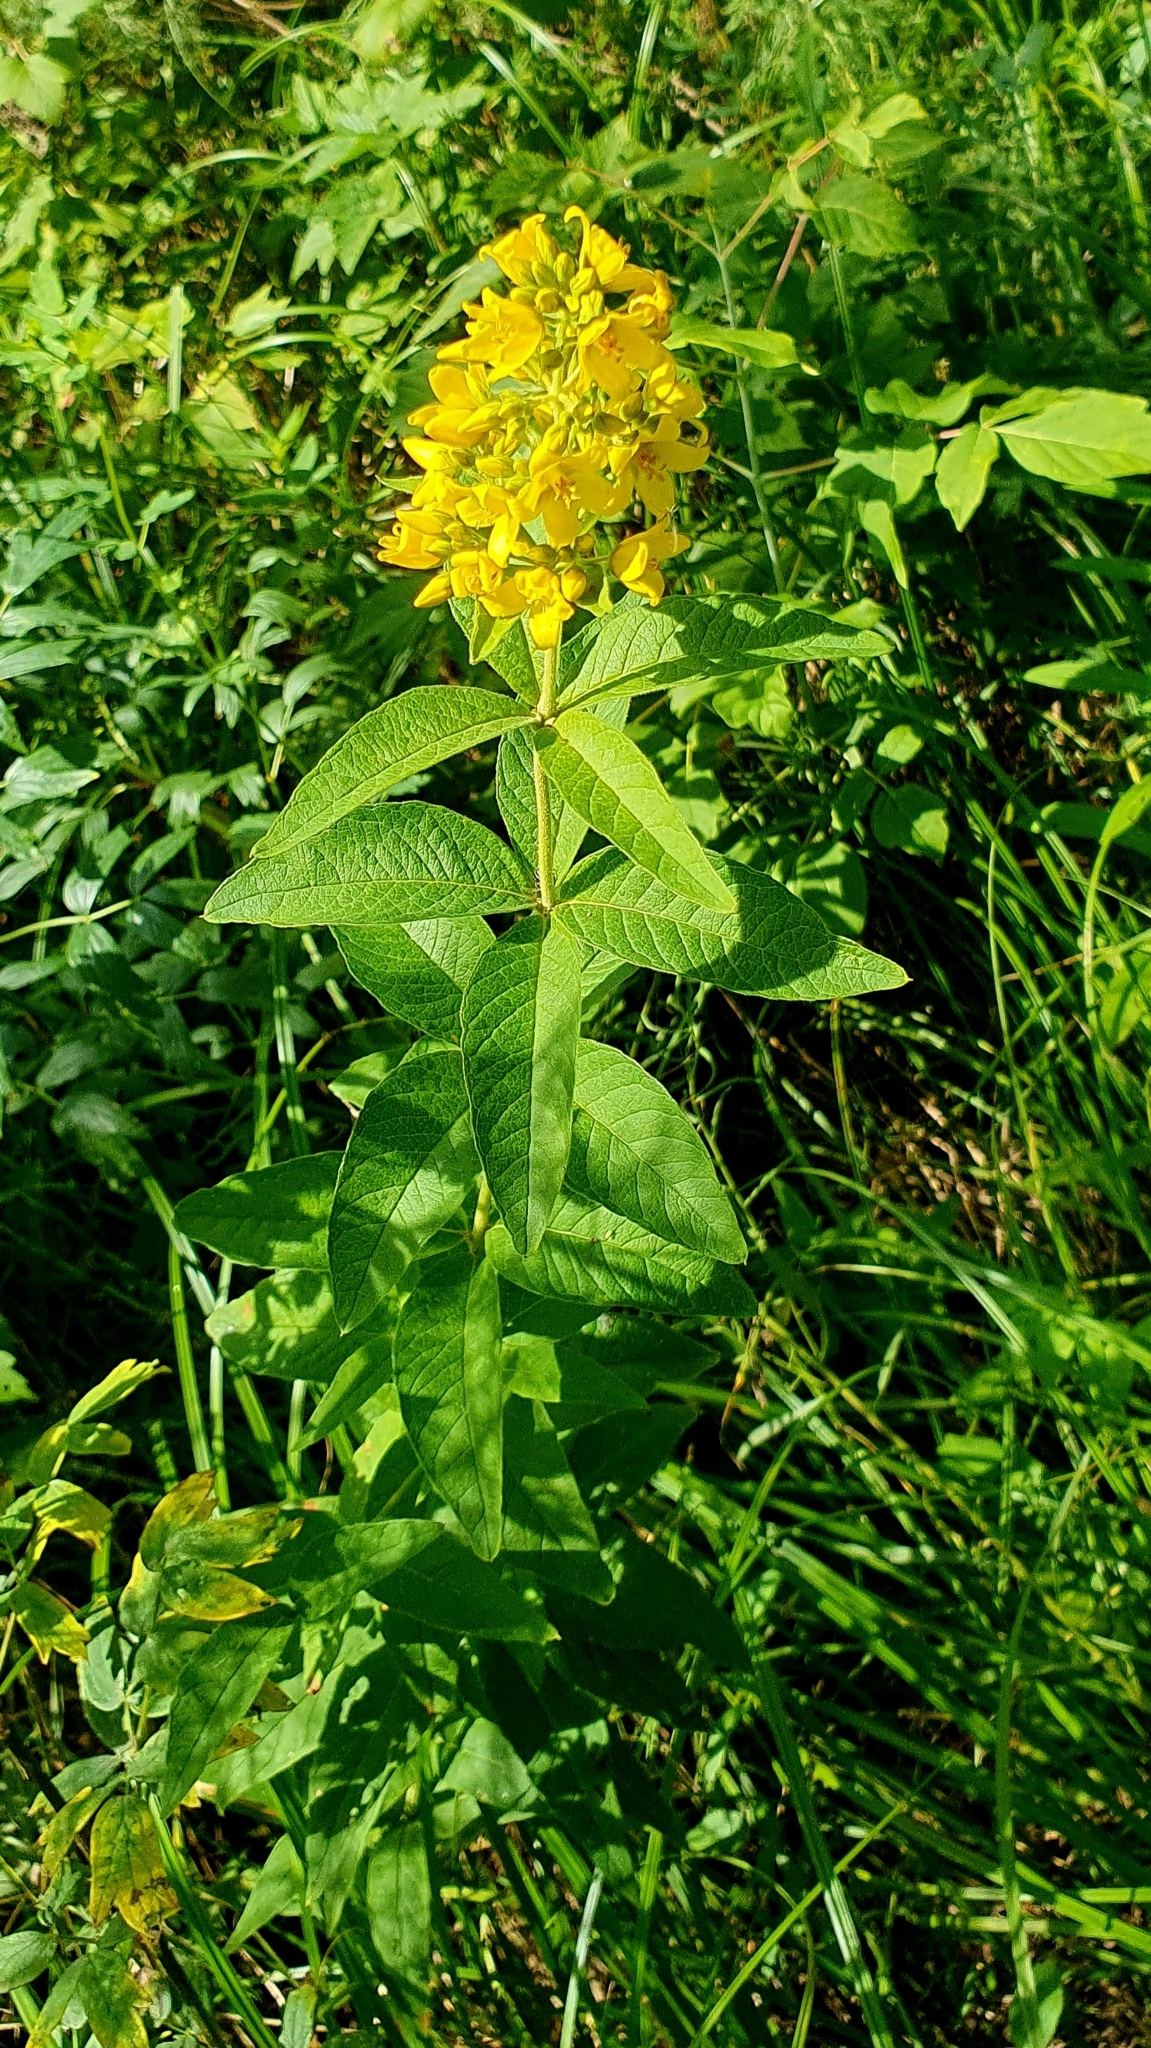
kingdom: Plantae
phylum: Tracheophyta
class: Magnoliopsida
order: Ericales
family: Primulaceae
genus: Lysimachia
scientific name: Lysimachia vulgaris
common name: Yellow loosestrife
